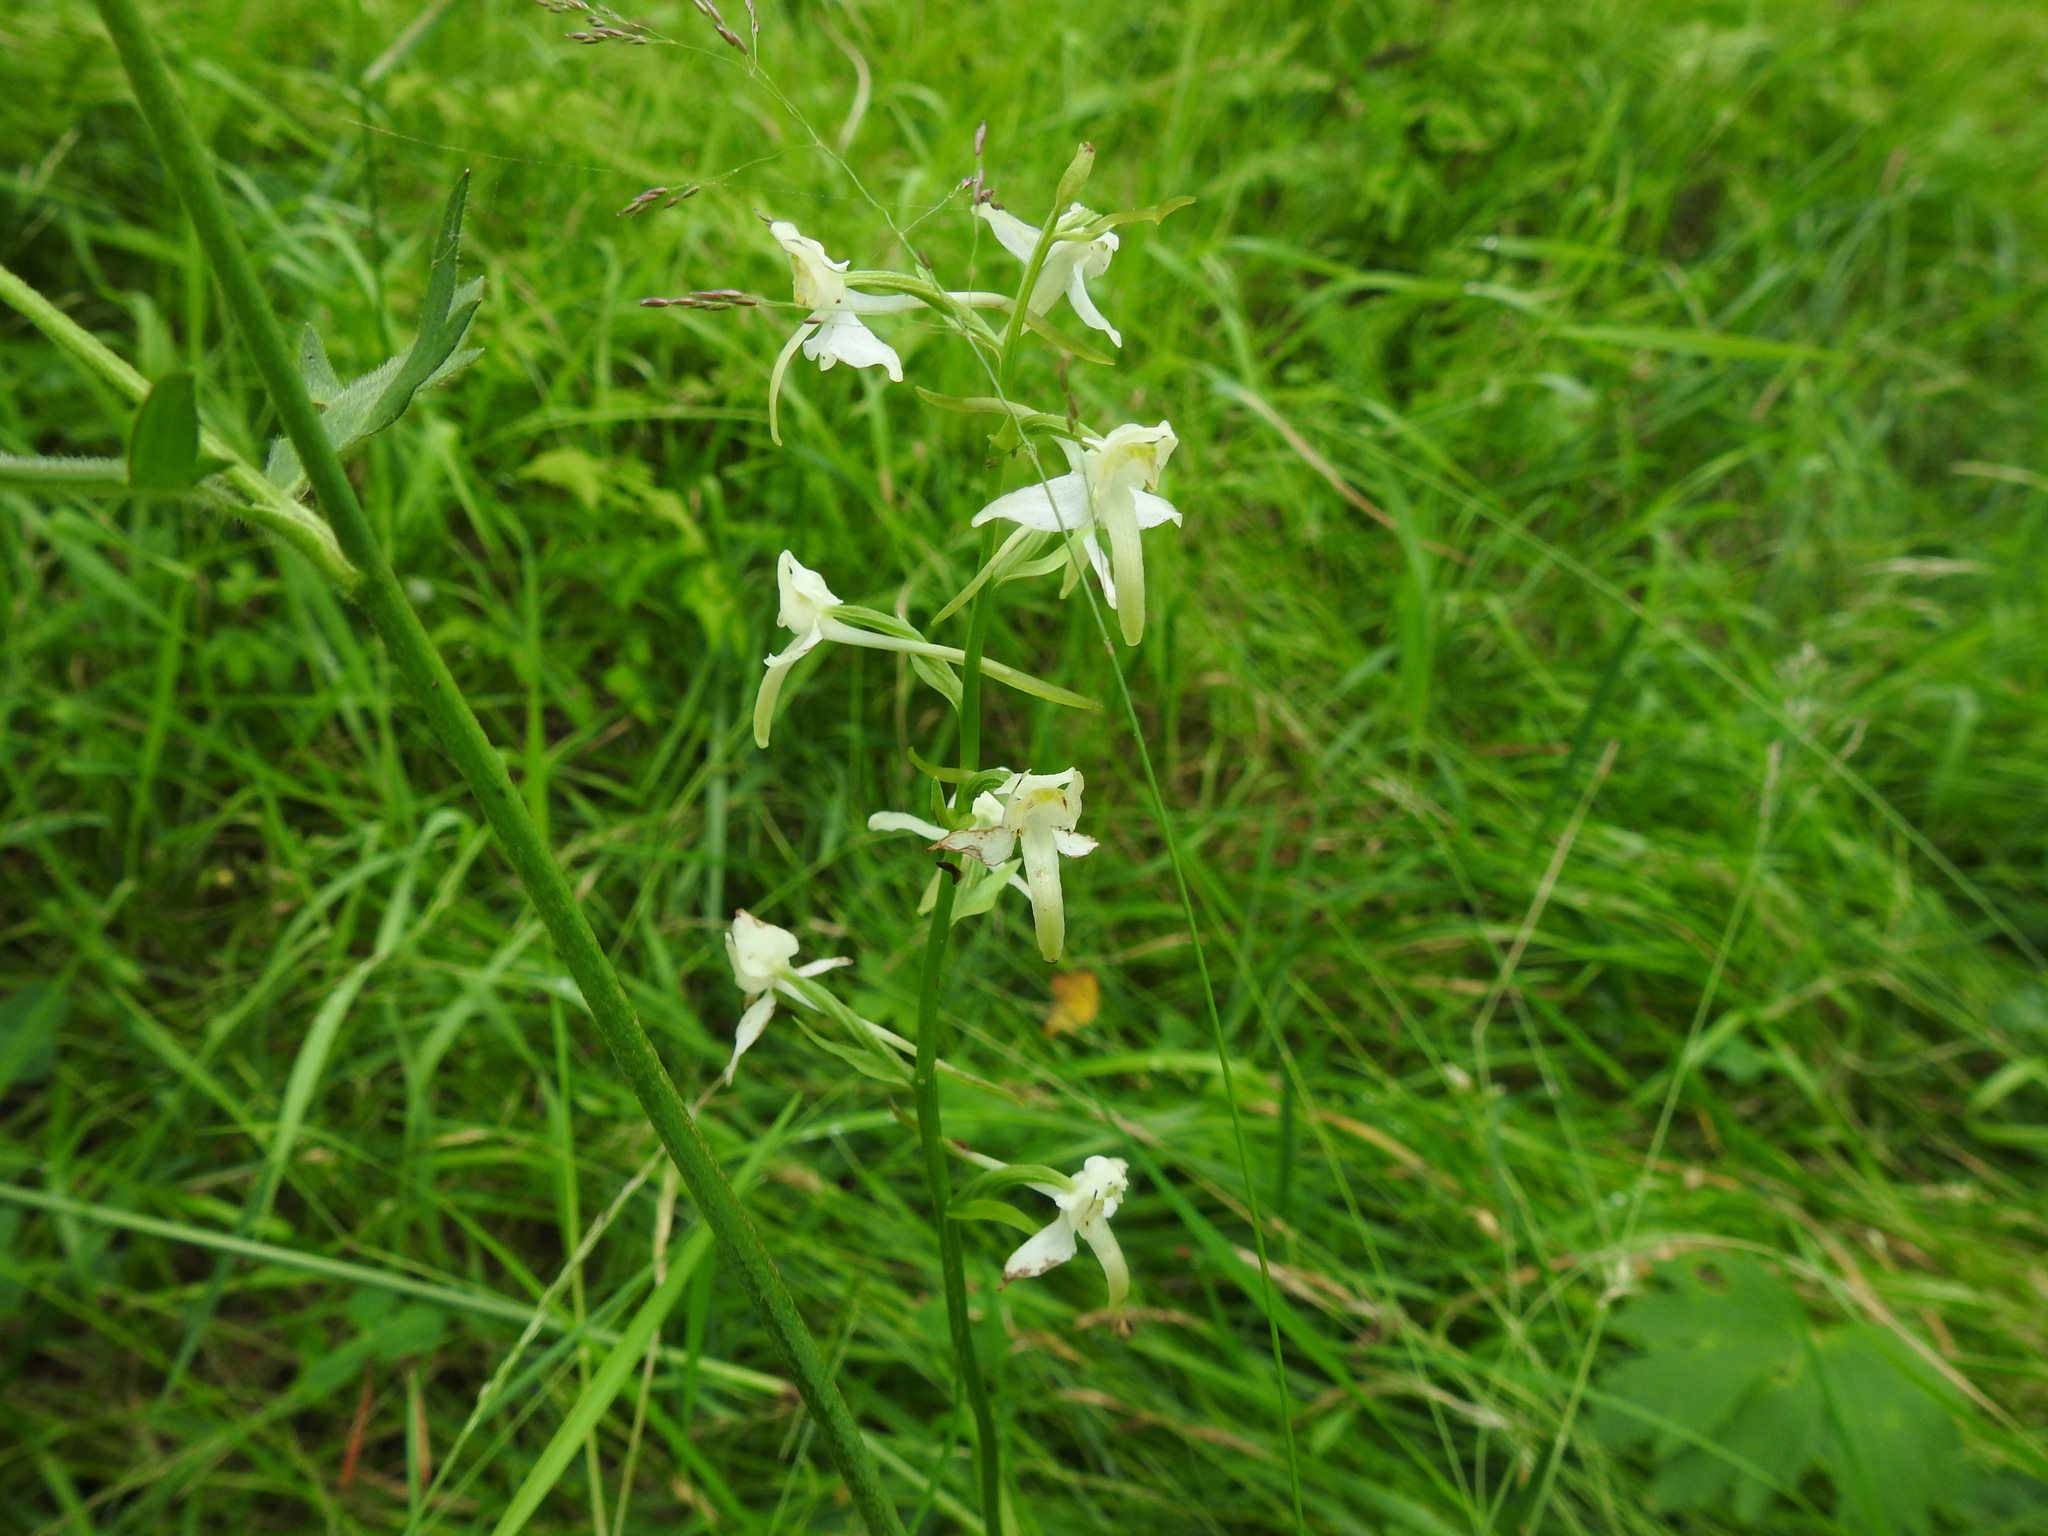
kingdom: Plantae
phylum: Tracheophyta
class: Liliopsida
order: Asparagales
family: Orchidaceae
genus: Platanthera
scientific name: Platanthera chlorantha
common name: Greater butterfly-orchid
